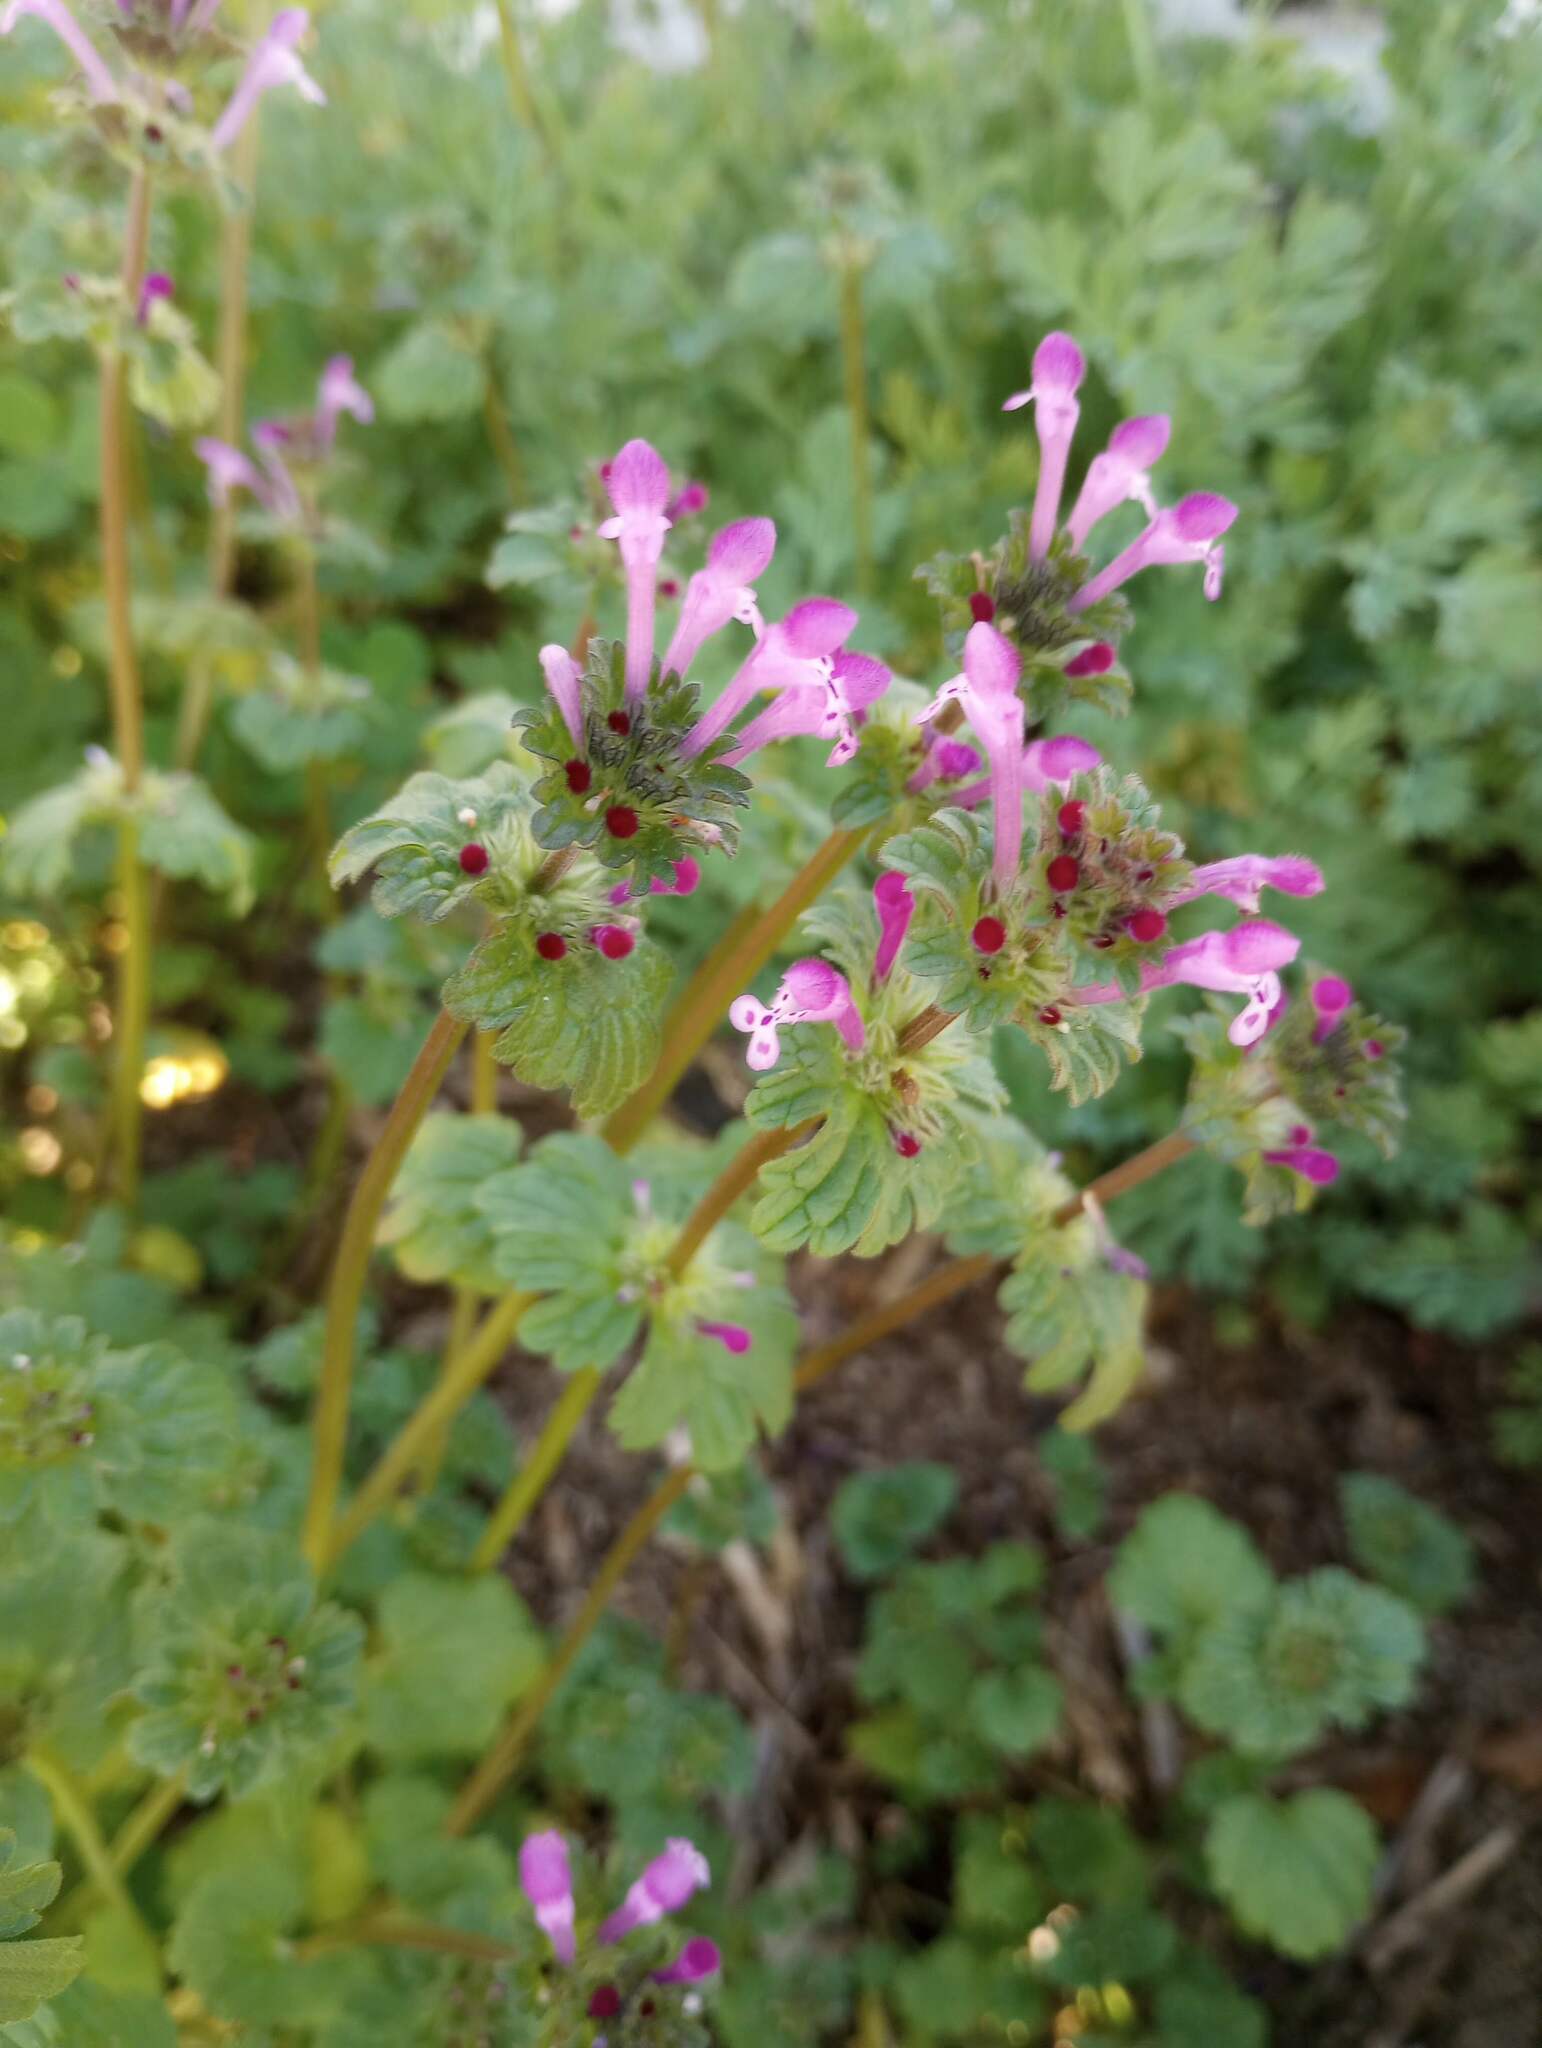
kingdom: Plantae
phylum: Tracheophyta
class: Magnoliopsida
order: Lamiales
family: Lamiaceae
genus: Lamium
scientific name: Lamium amplexicaule
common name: Henbit dead-nettle
